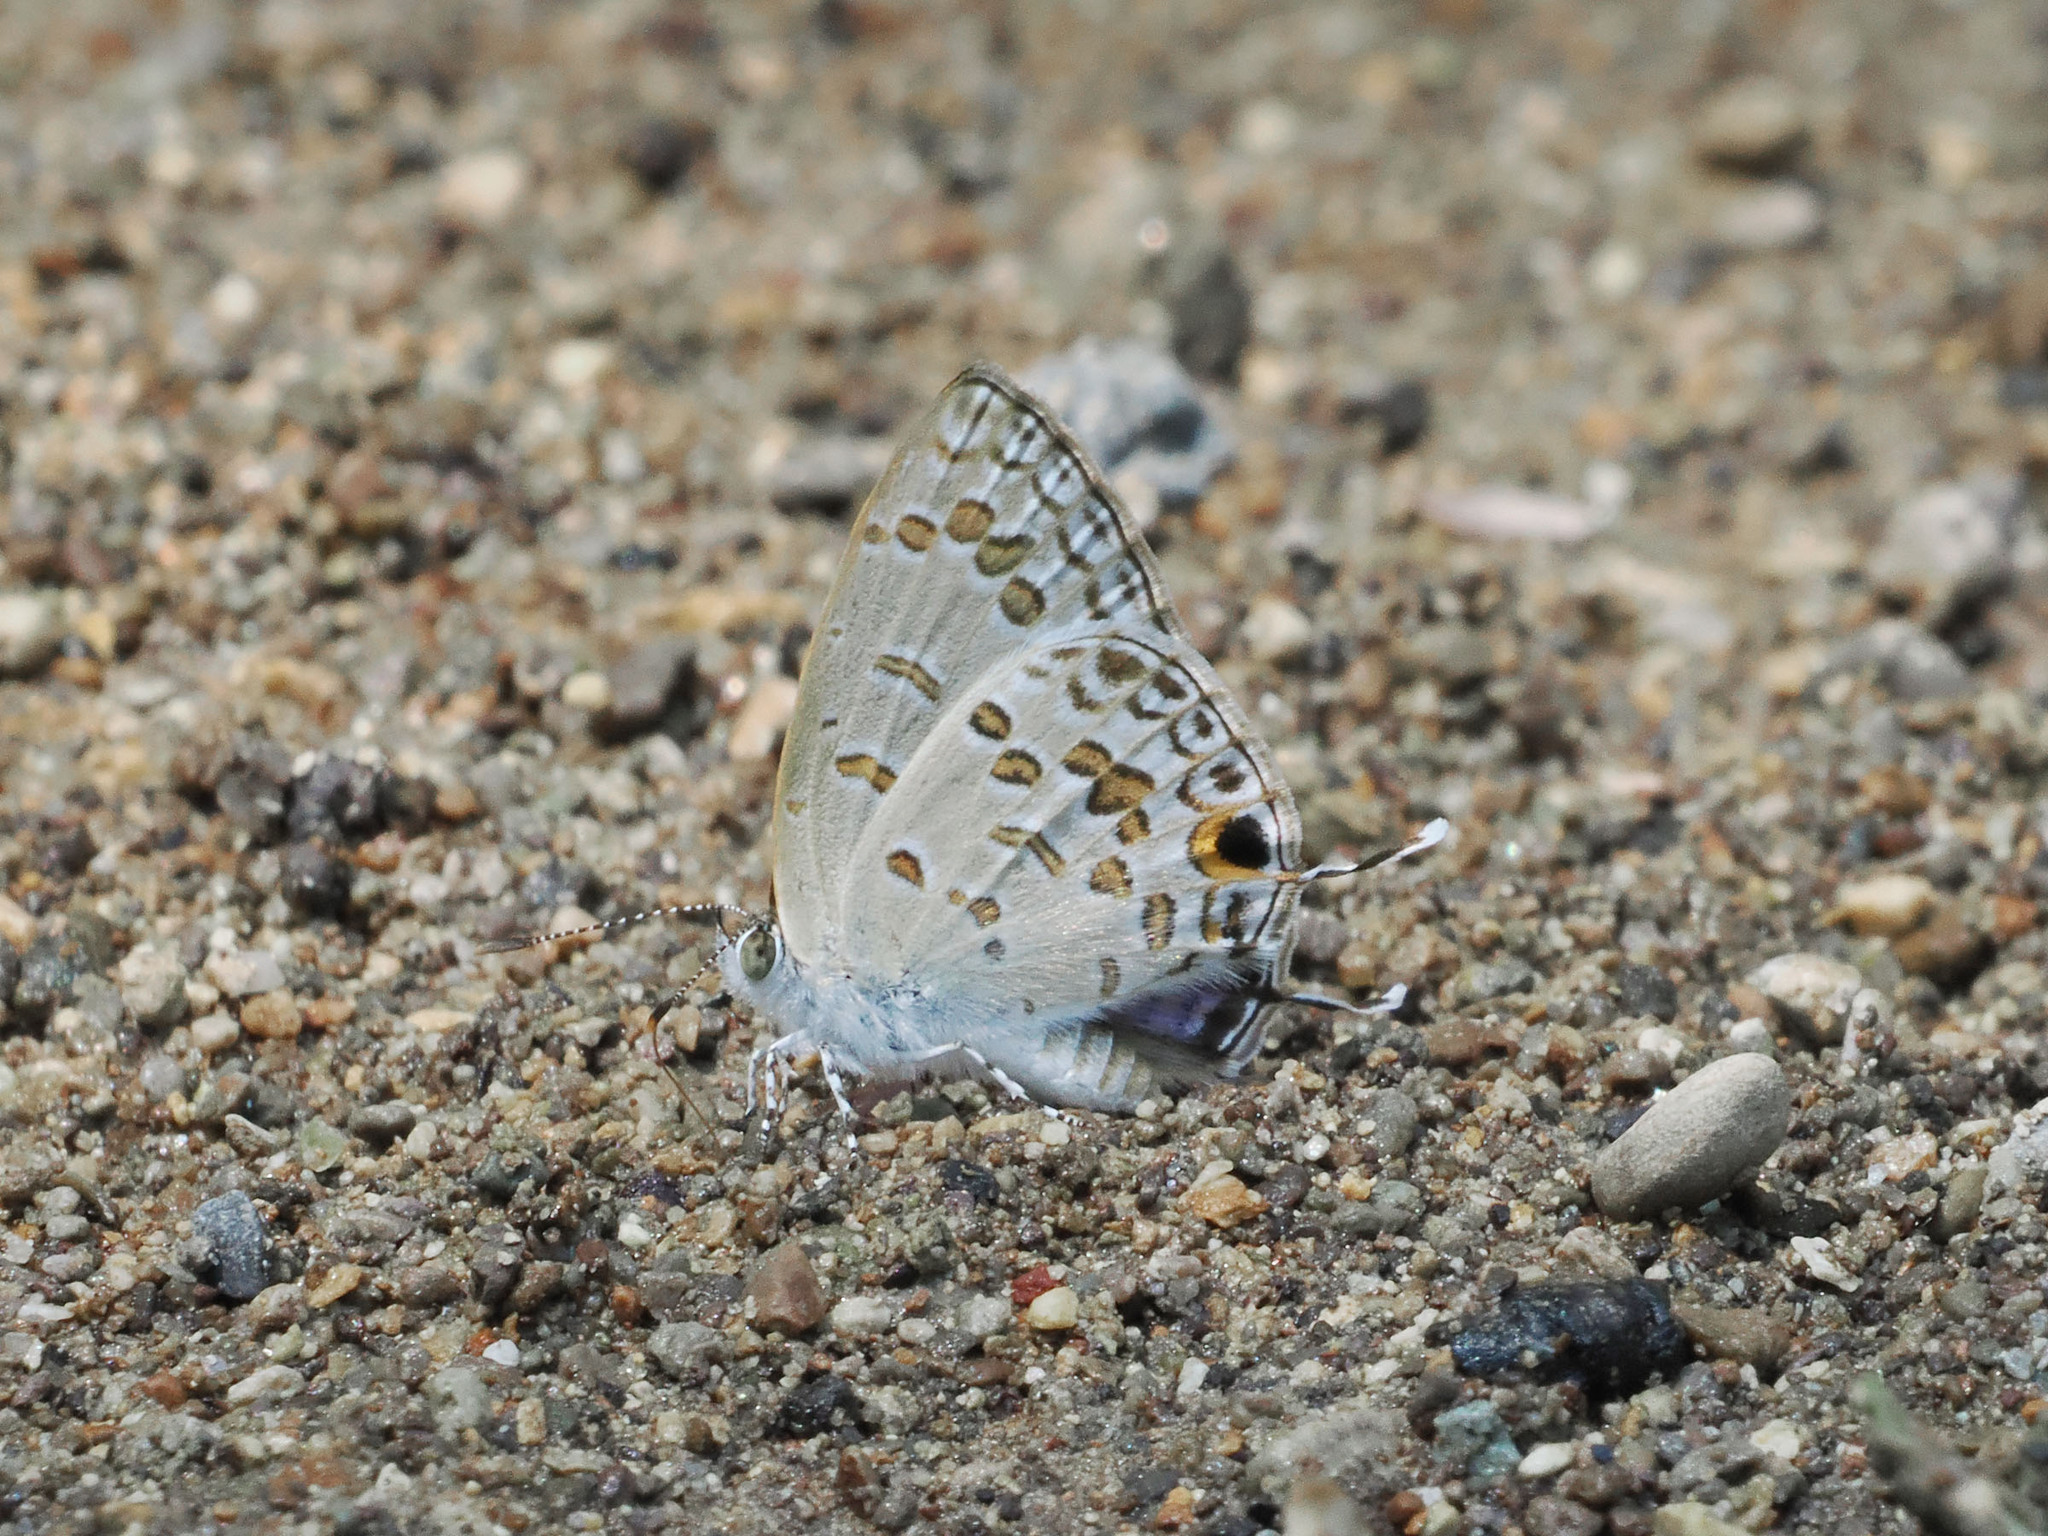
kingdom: Animalia
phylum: Arthropoda
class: Insecta
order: Lepidoptera
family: Lycaenidae
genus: Catopyrops
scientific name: Catopyrops rita
